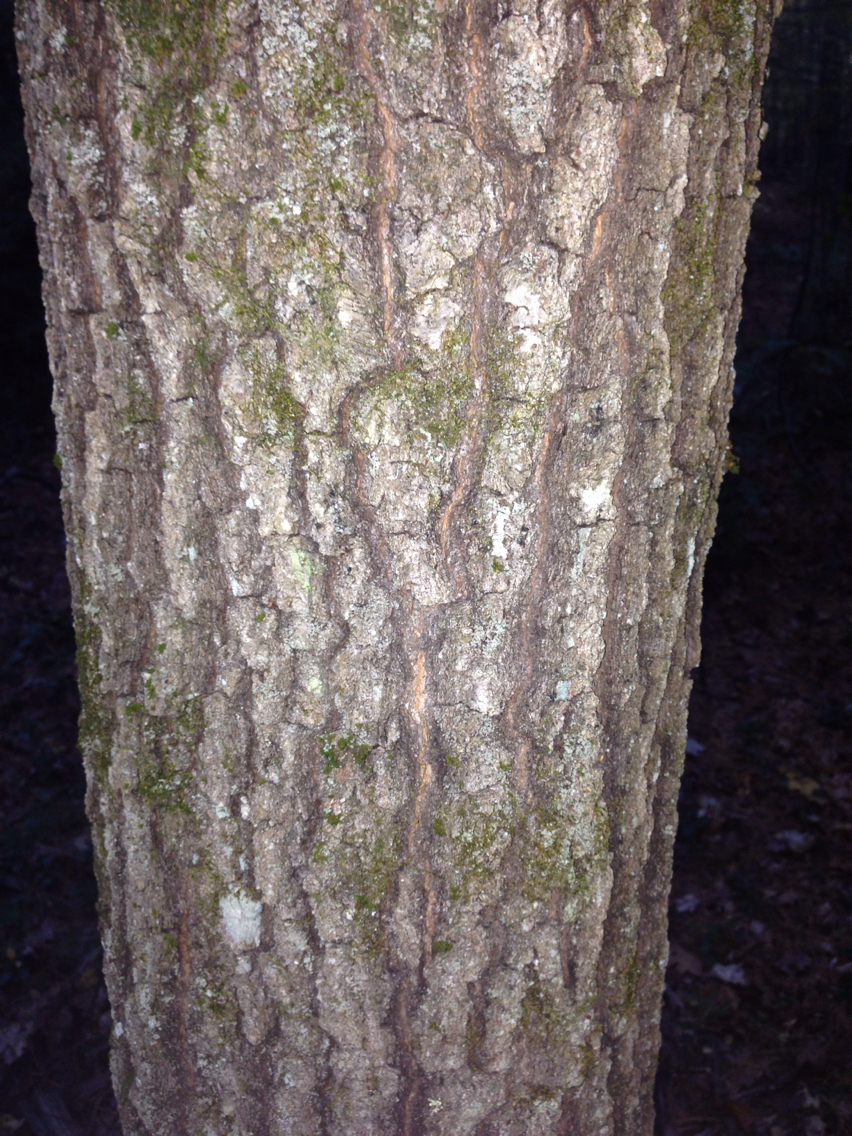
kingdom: Plantae
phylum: Tracheophyta
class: Magnoliopsida
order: Fagales
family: Fagaceae
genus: Quercus
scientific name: Quercus velutina
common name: Black oak
